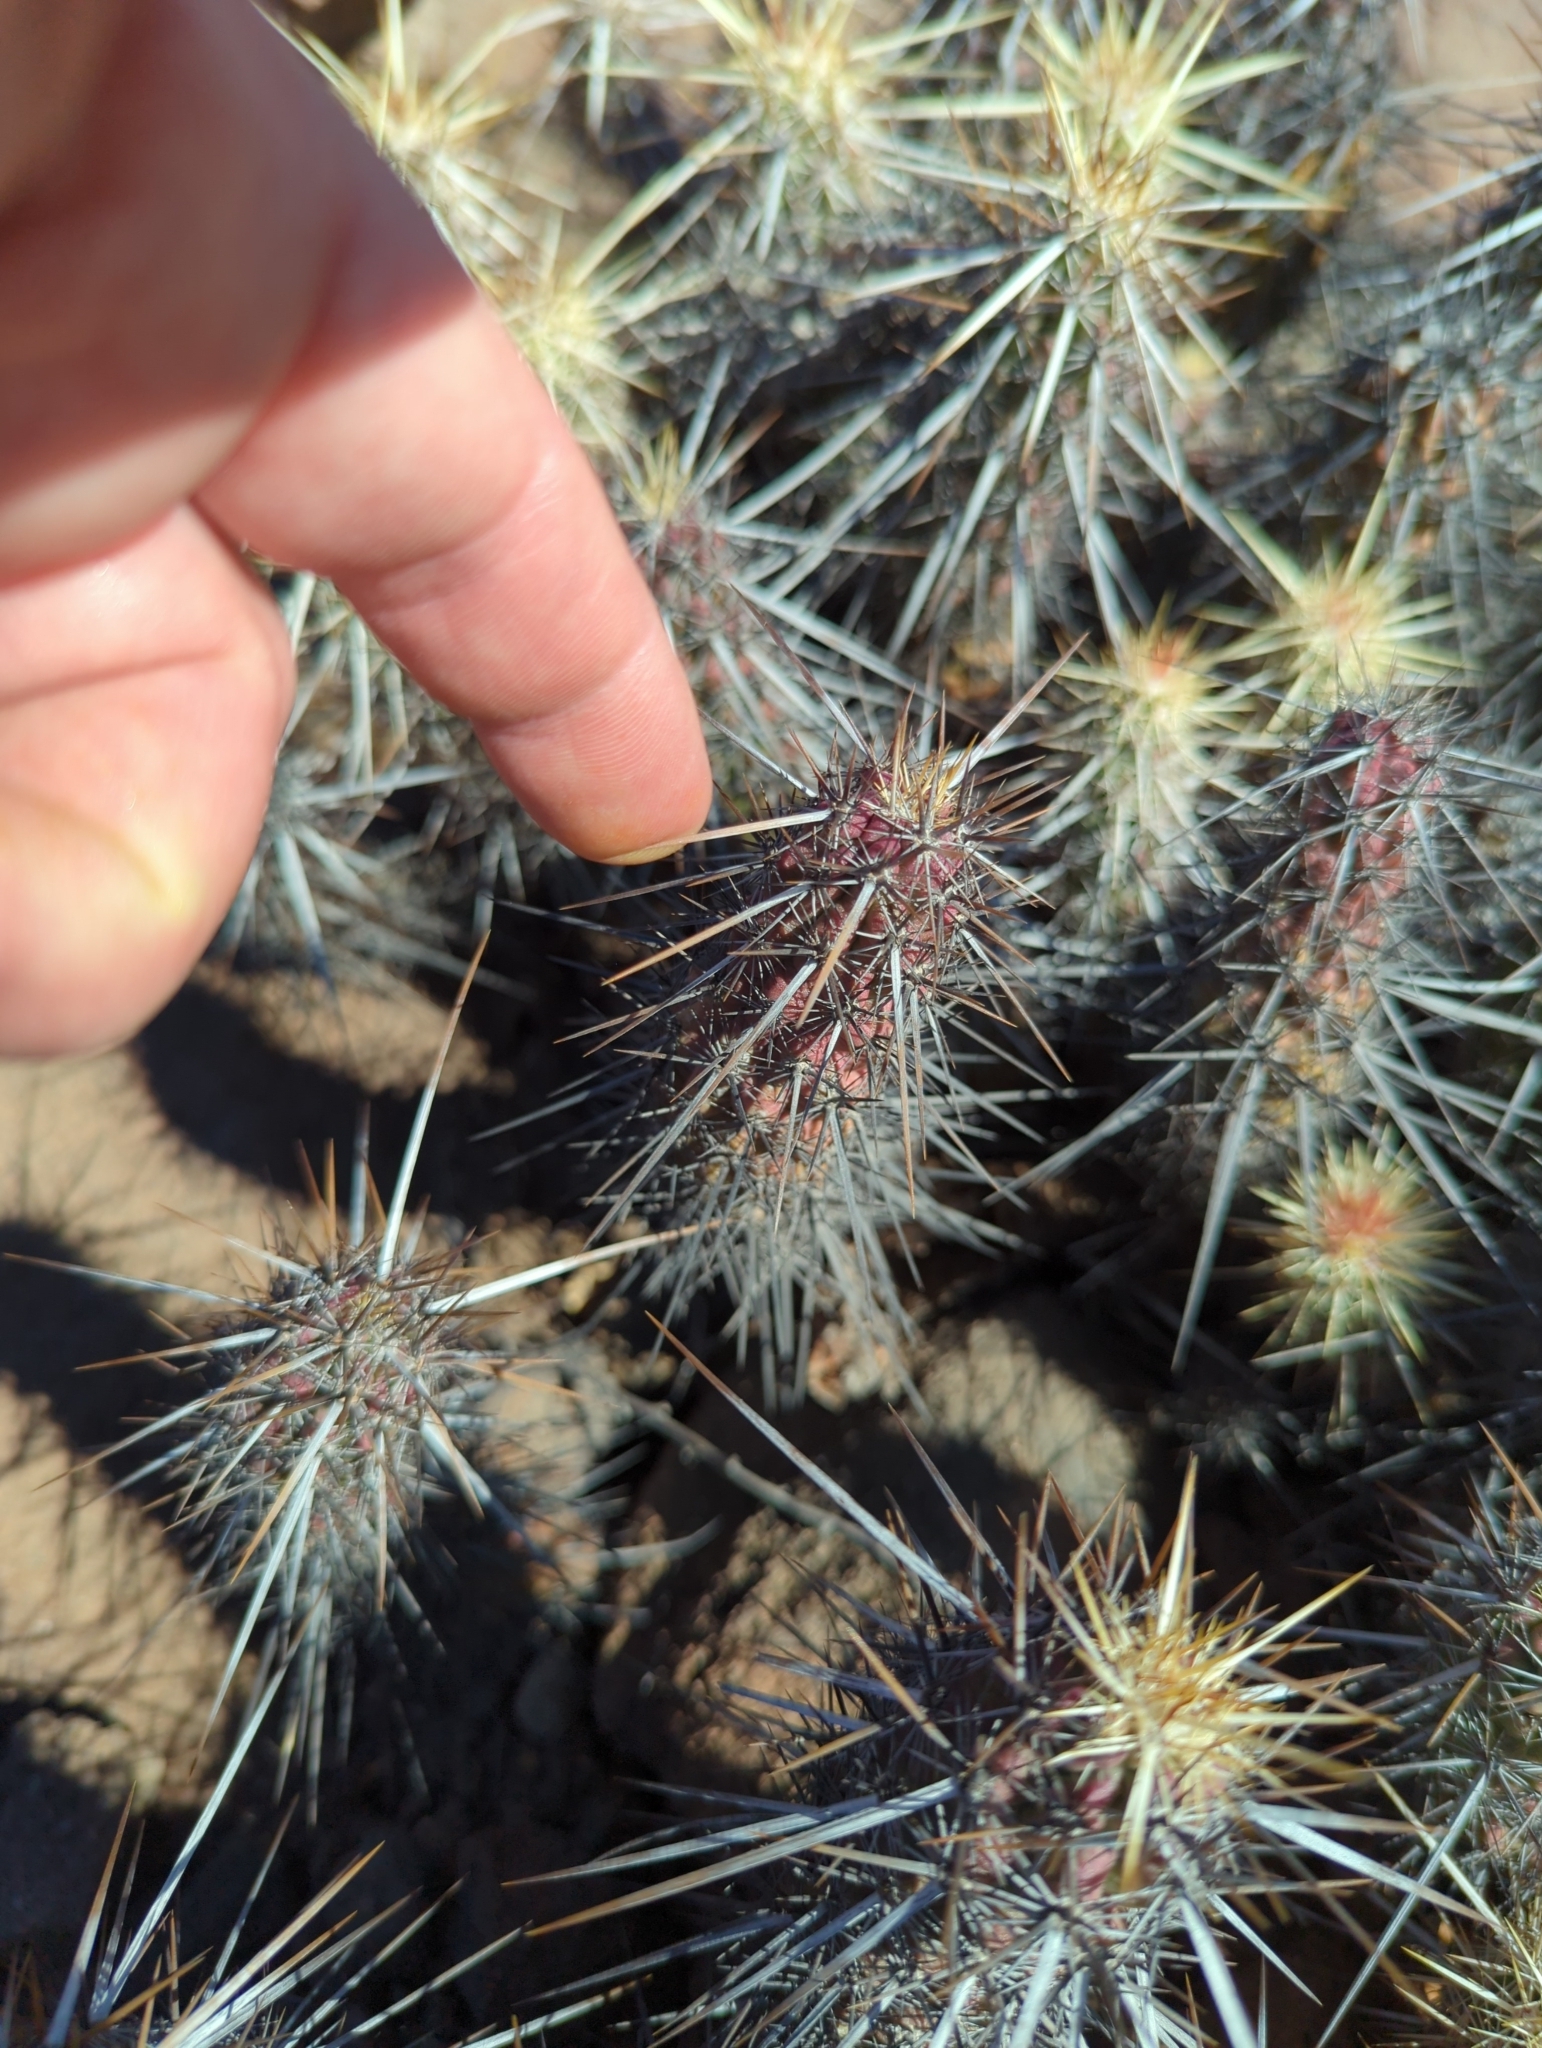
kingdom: Plantae
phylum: Tracheophyta
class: Magnoliopsida
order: Caryophyllales
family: Cactaceae
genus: Echinocereus
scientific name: Echinocereus brandegeei
